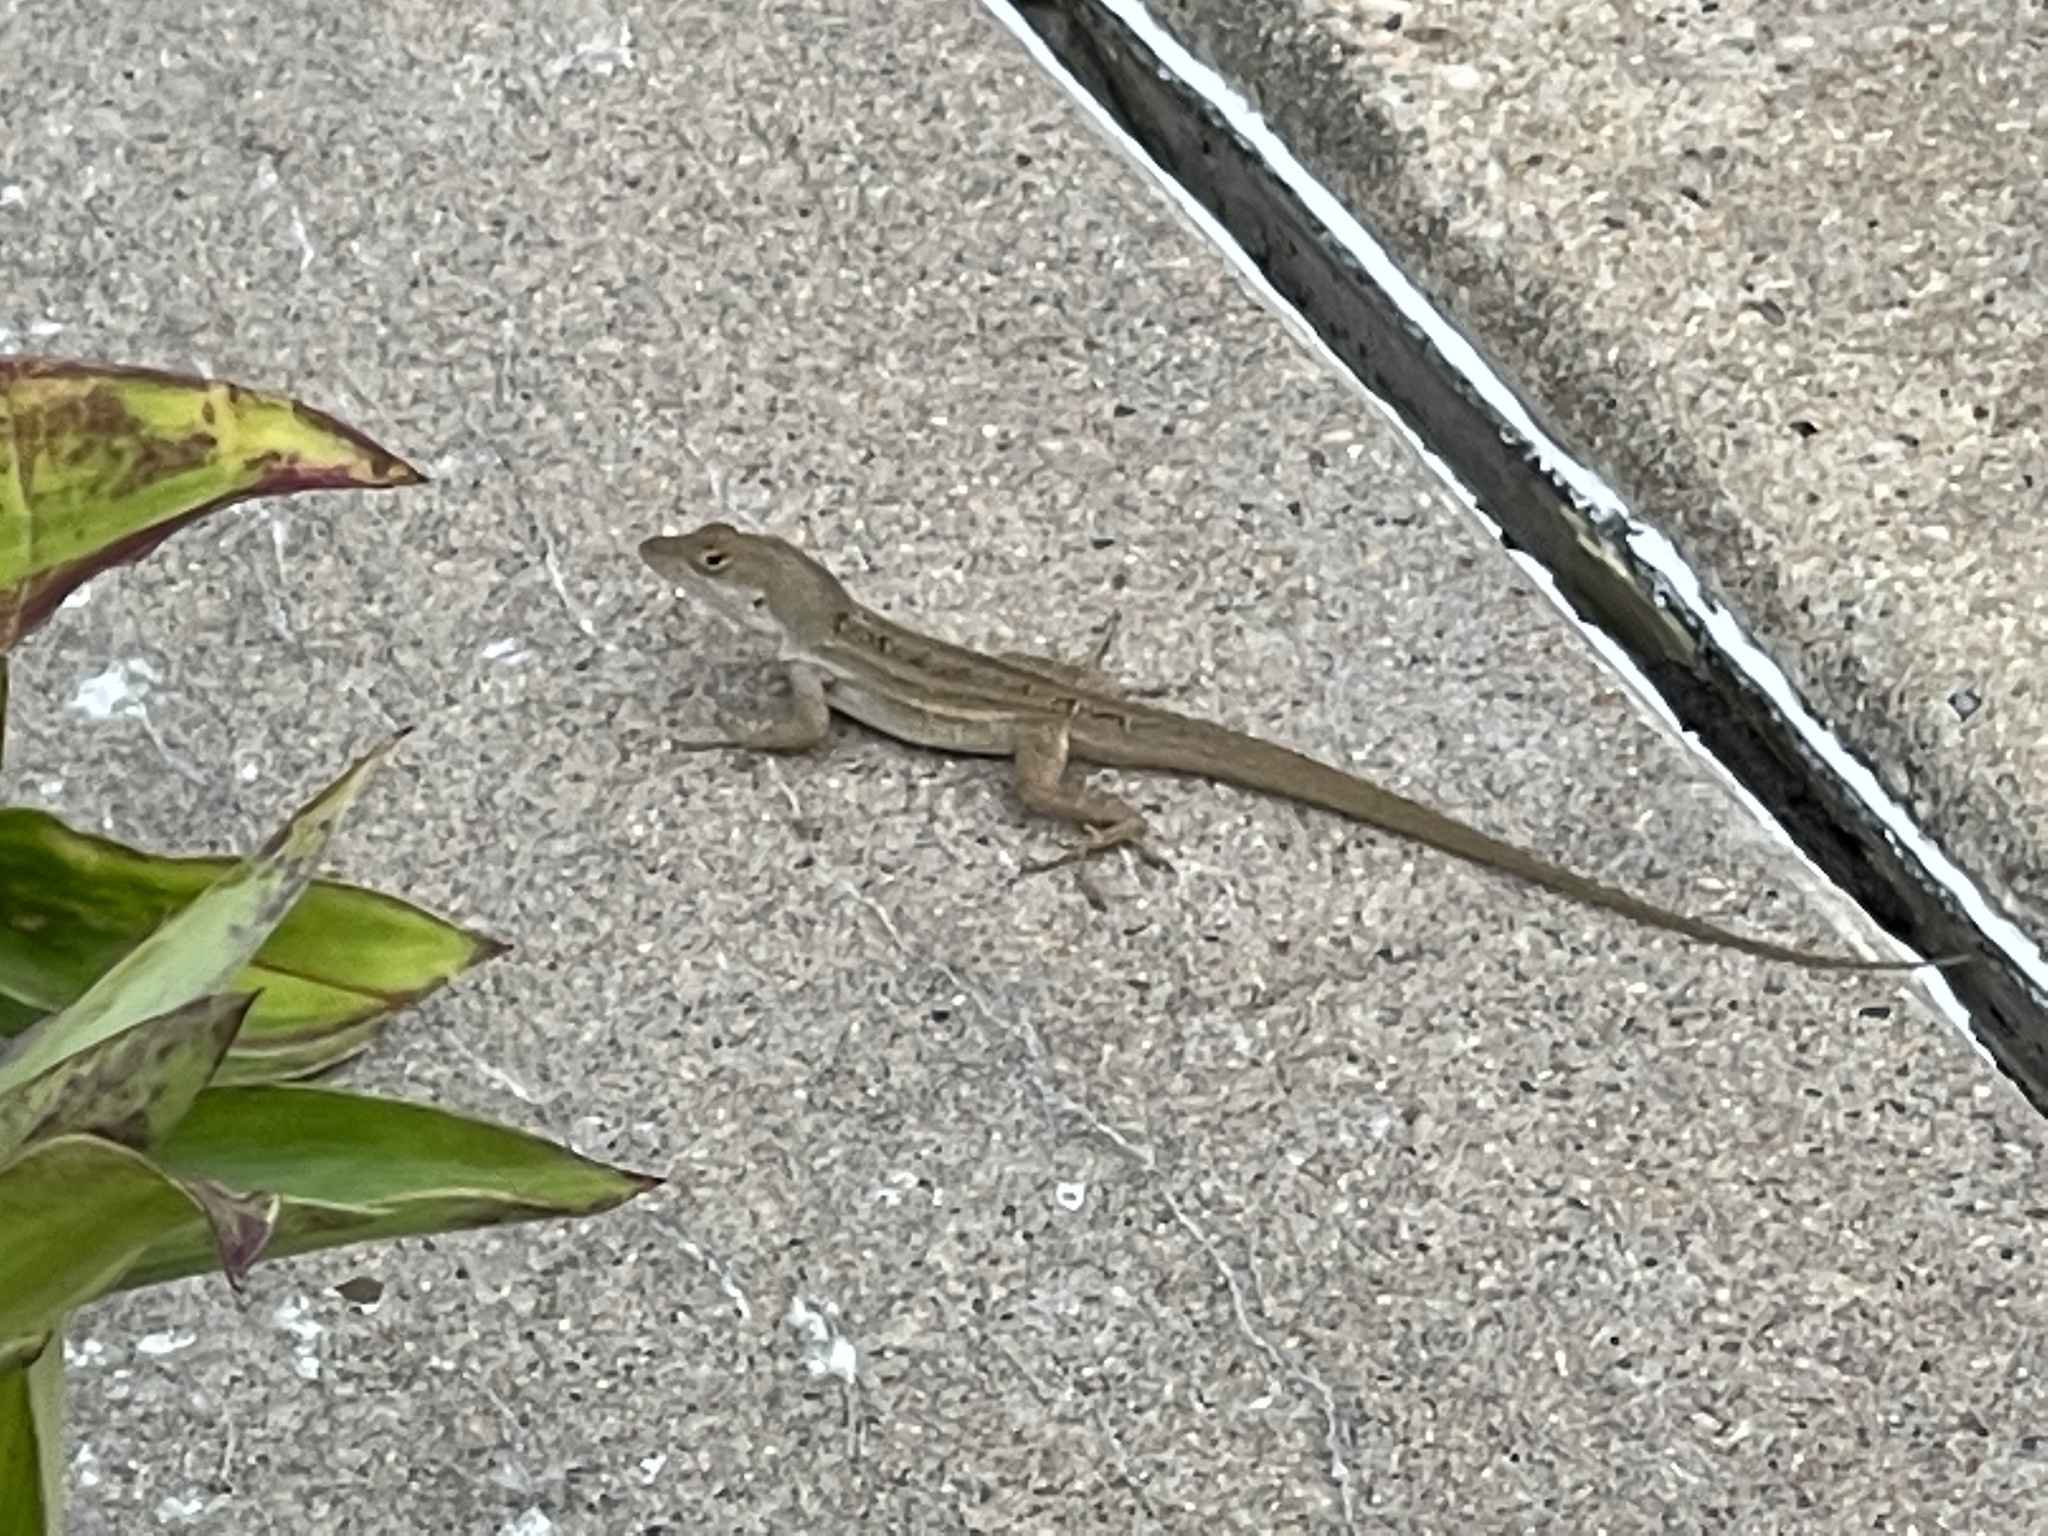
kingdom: Animalia
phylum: Chordata
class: Squamata
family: Dactyloidae
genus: Anolis
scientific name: Anolis sagrei
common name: Brown anole
